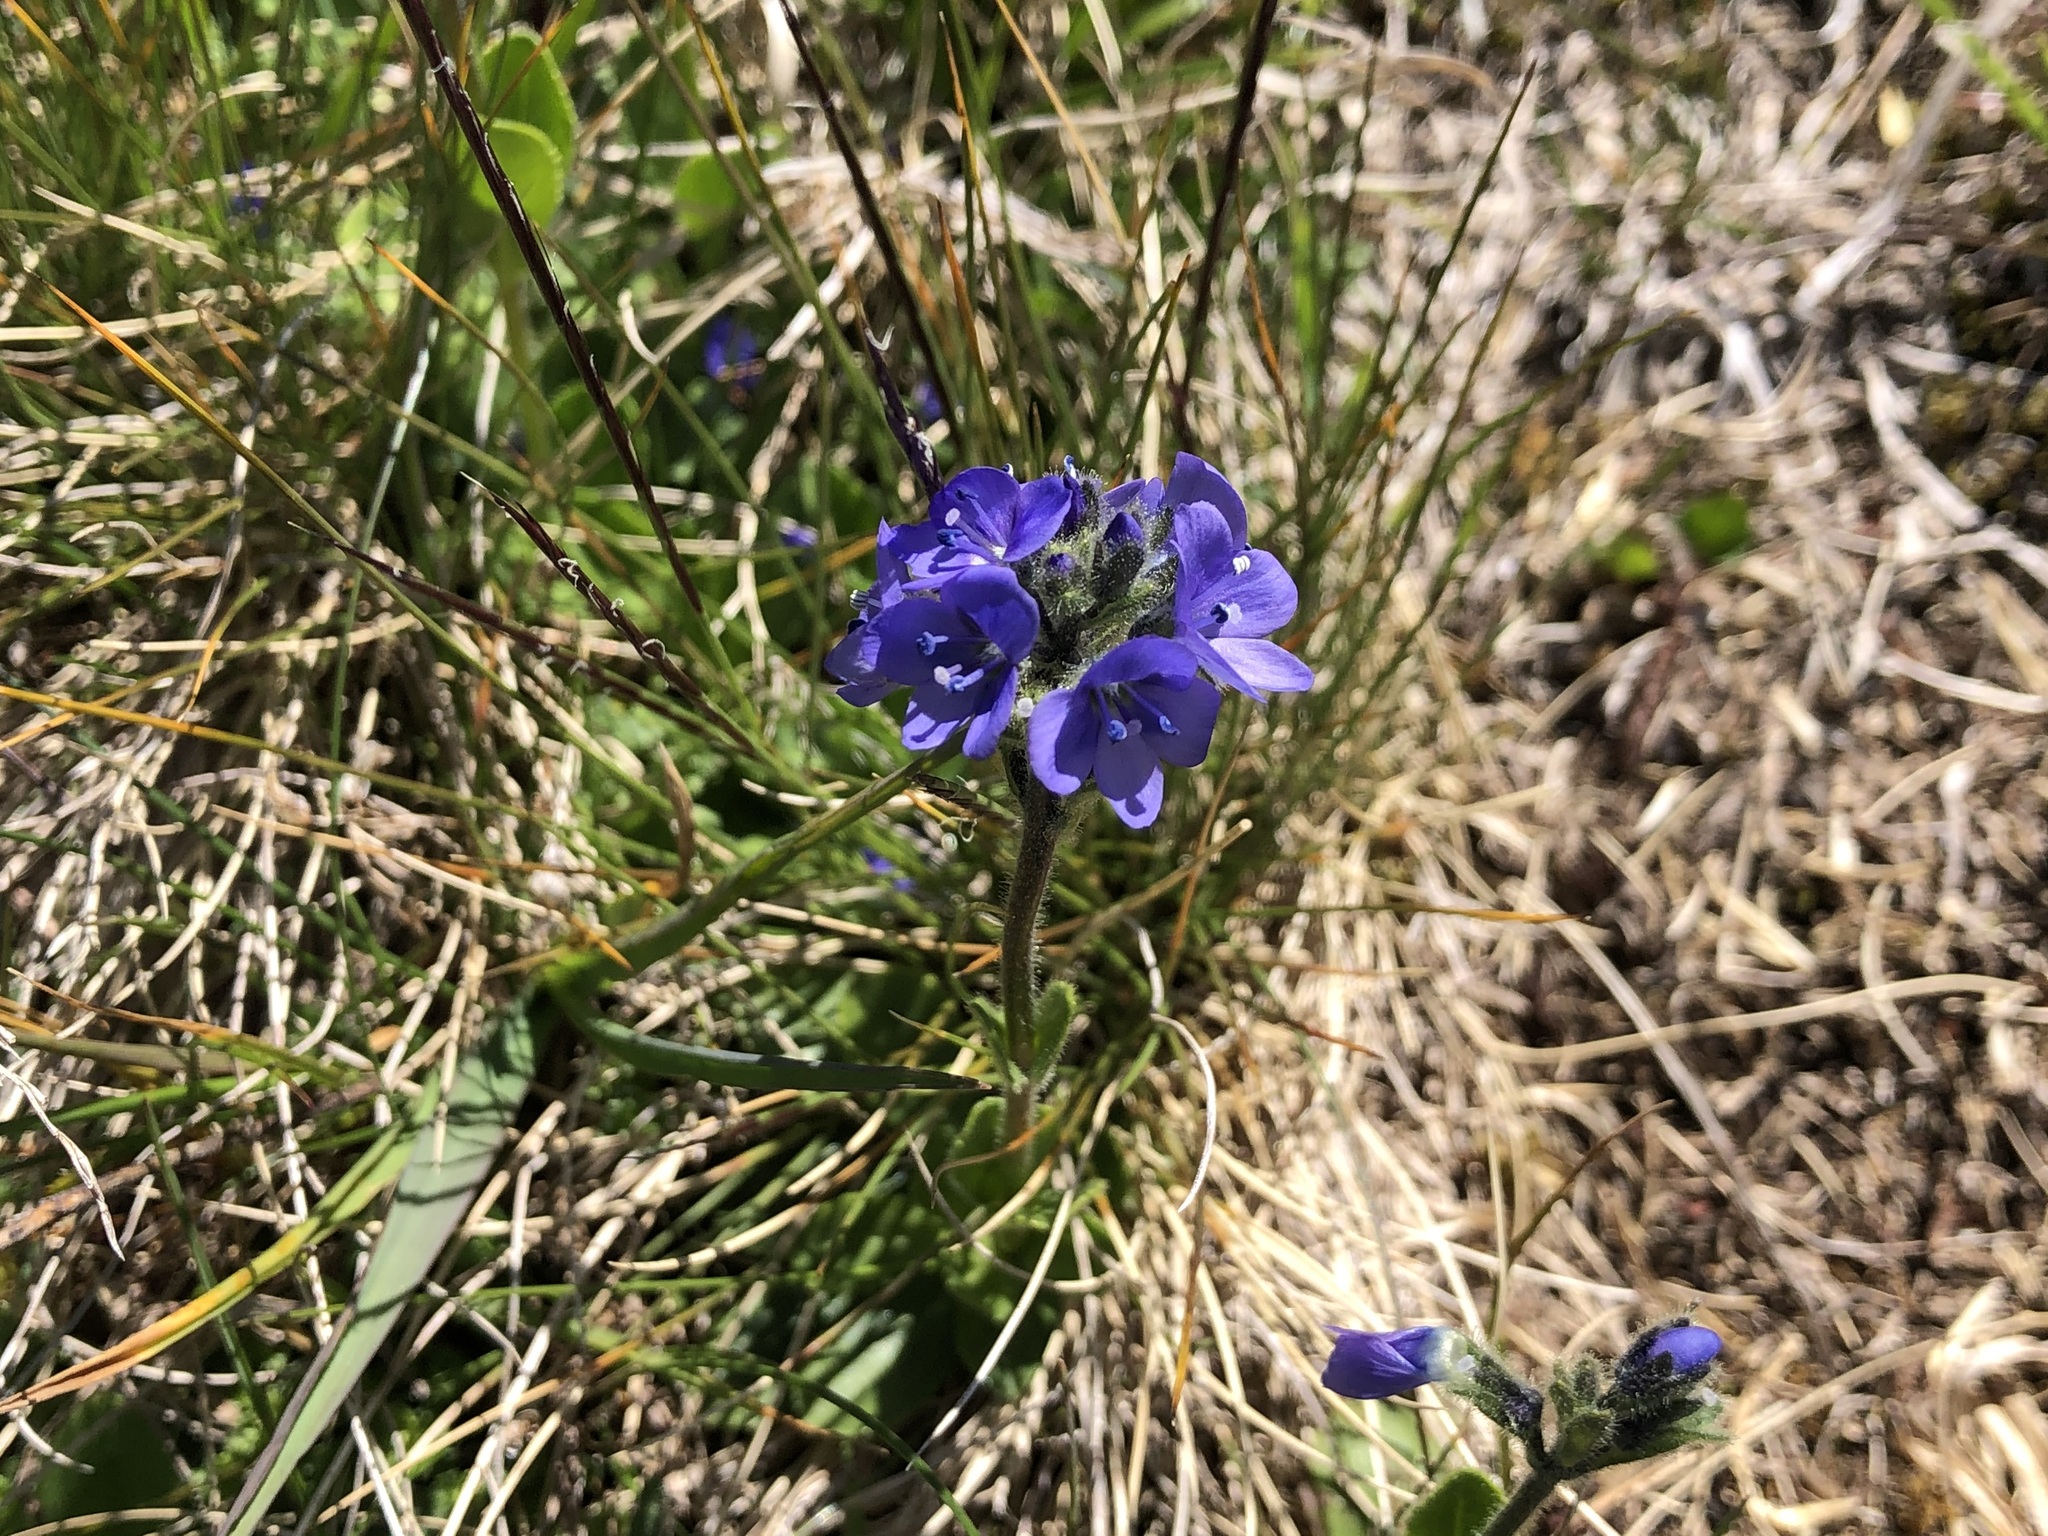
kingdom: Plantae
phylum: Tracheophyta
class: Magnoliopsida
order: Lamiales
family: Plantaginaceae
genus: Veronica
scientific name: Veronica bellidioides
